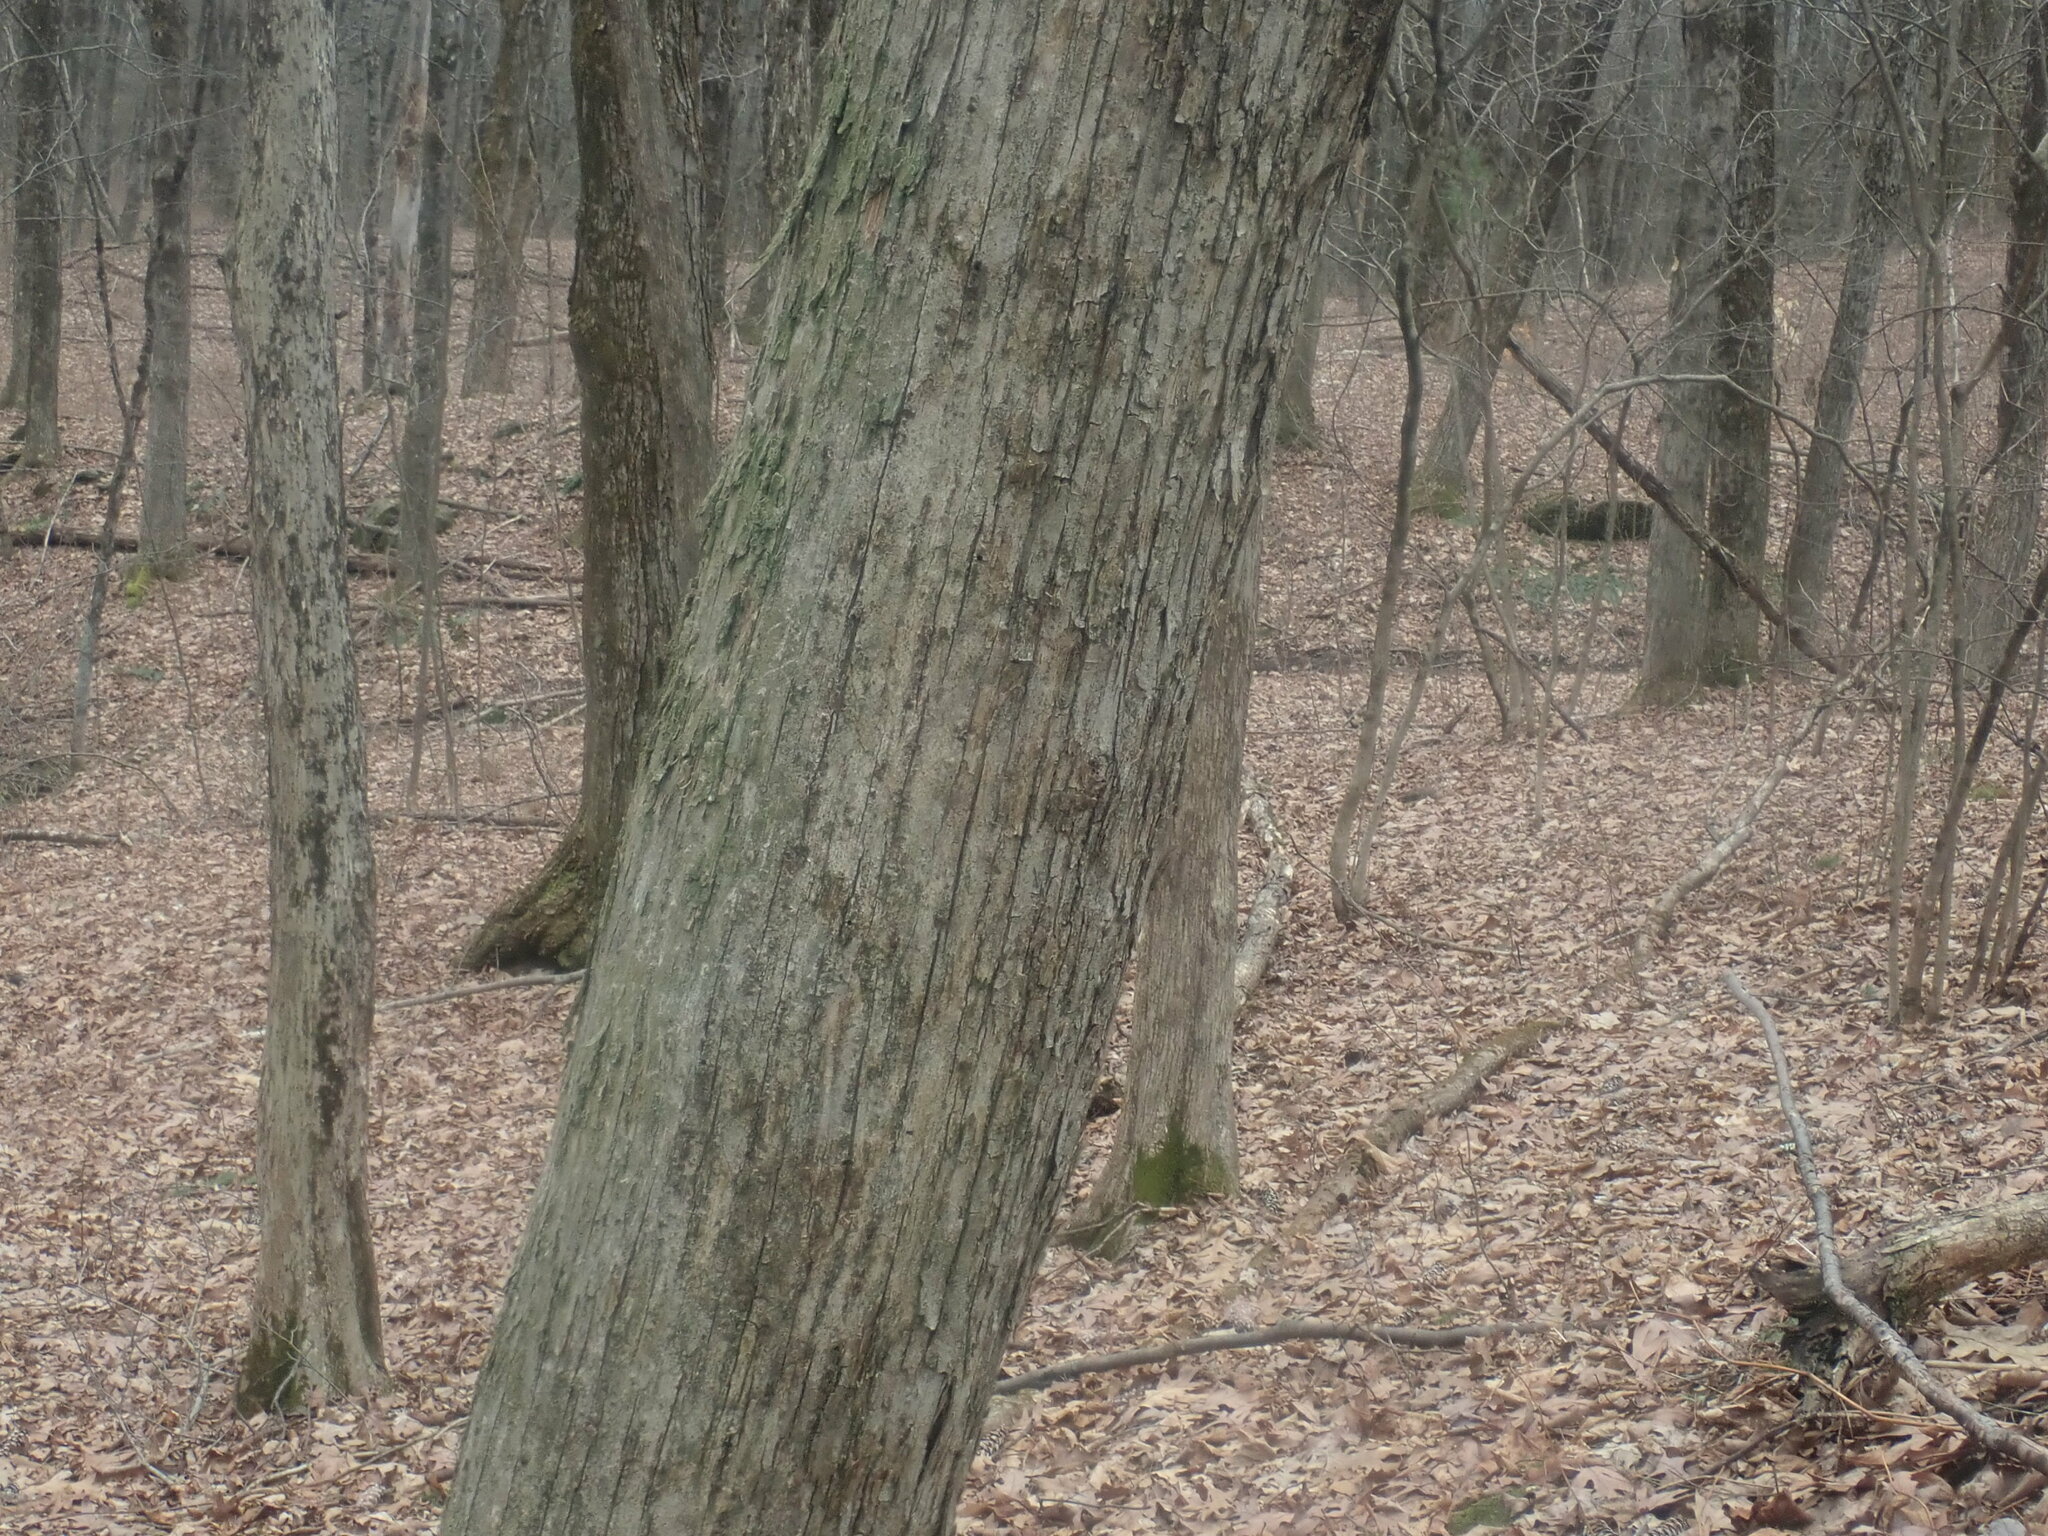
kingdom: Plantae
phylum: Tracheophyta
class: Magnoliopsida
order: Fagales
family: Betulaceae
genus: Ostrya
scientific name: Ostrya virginiana
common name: Ironwood
